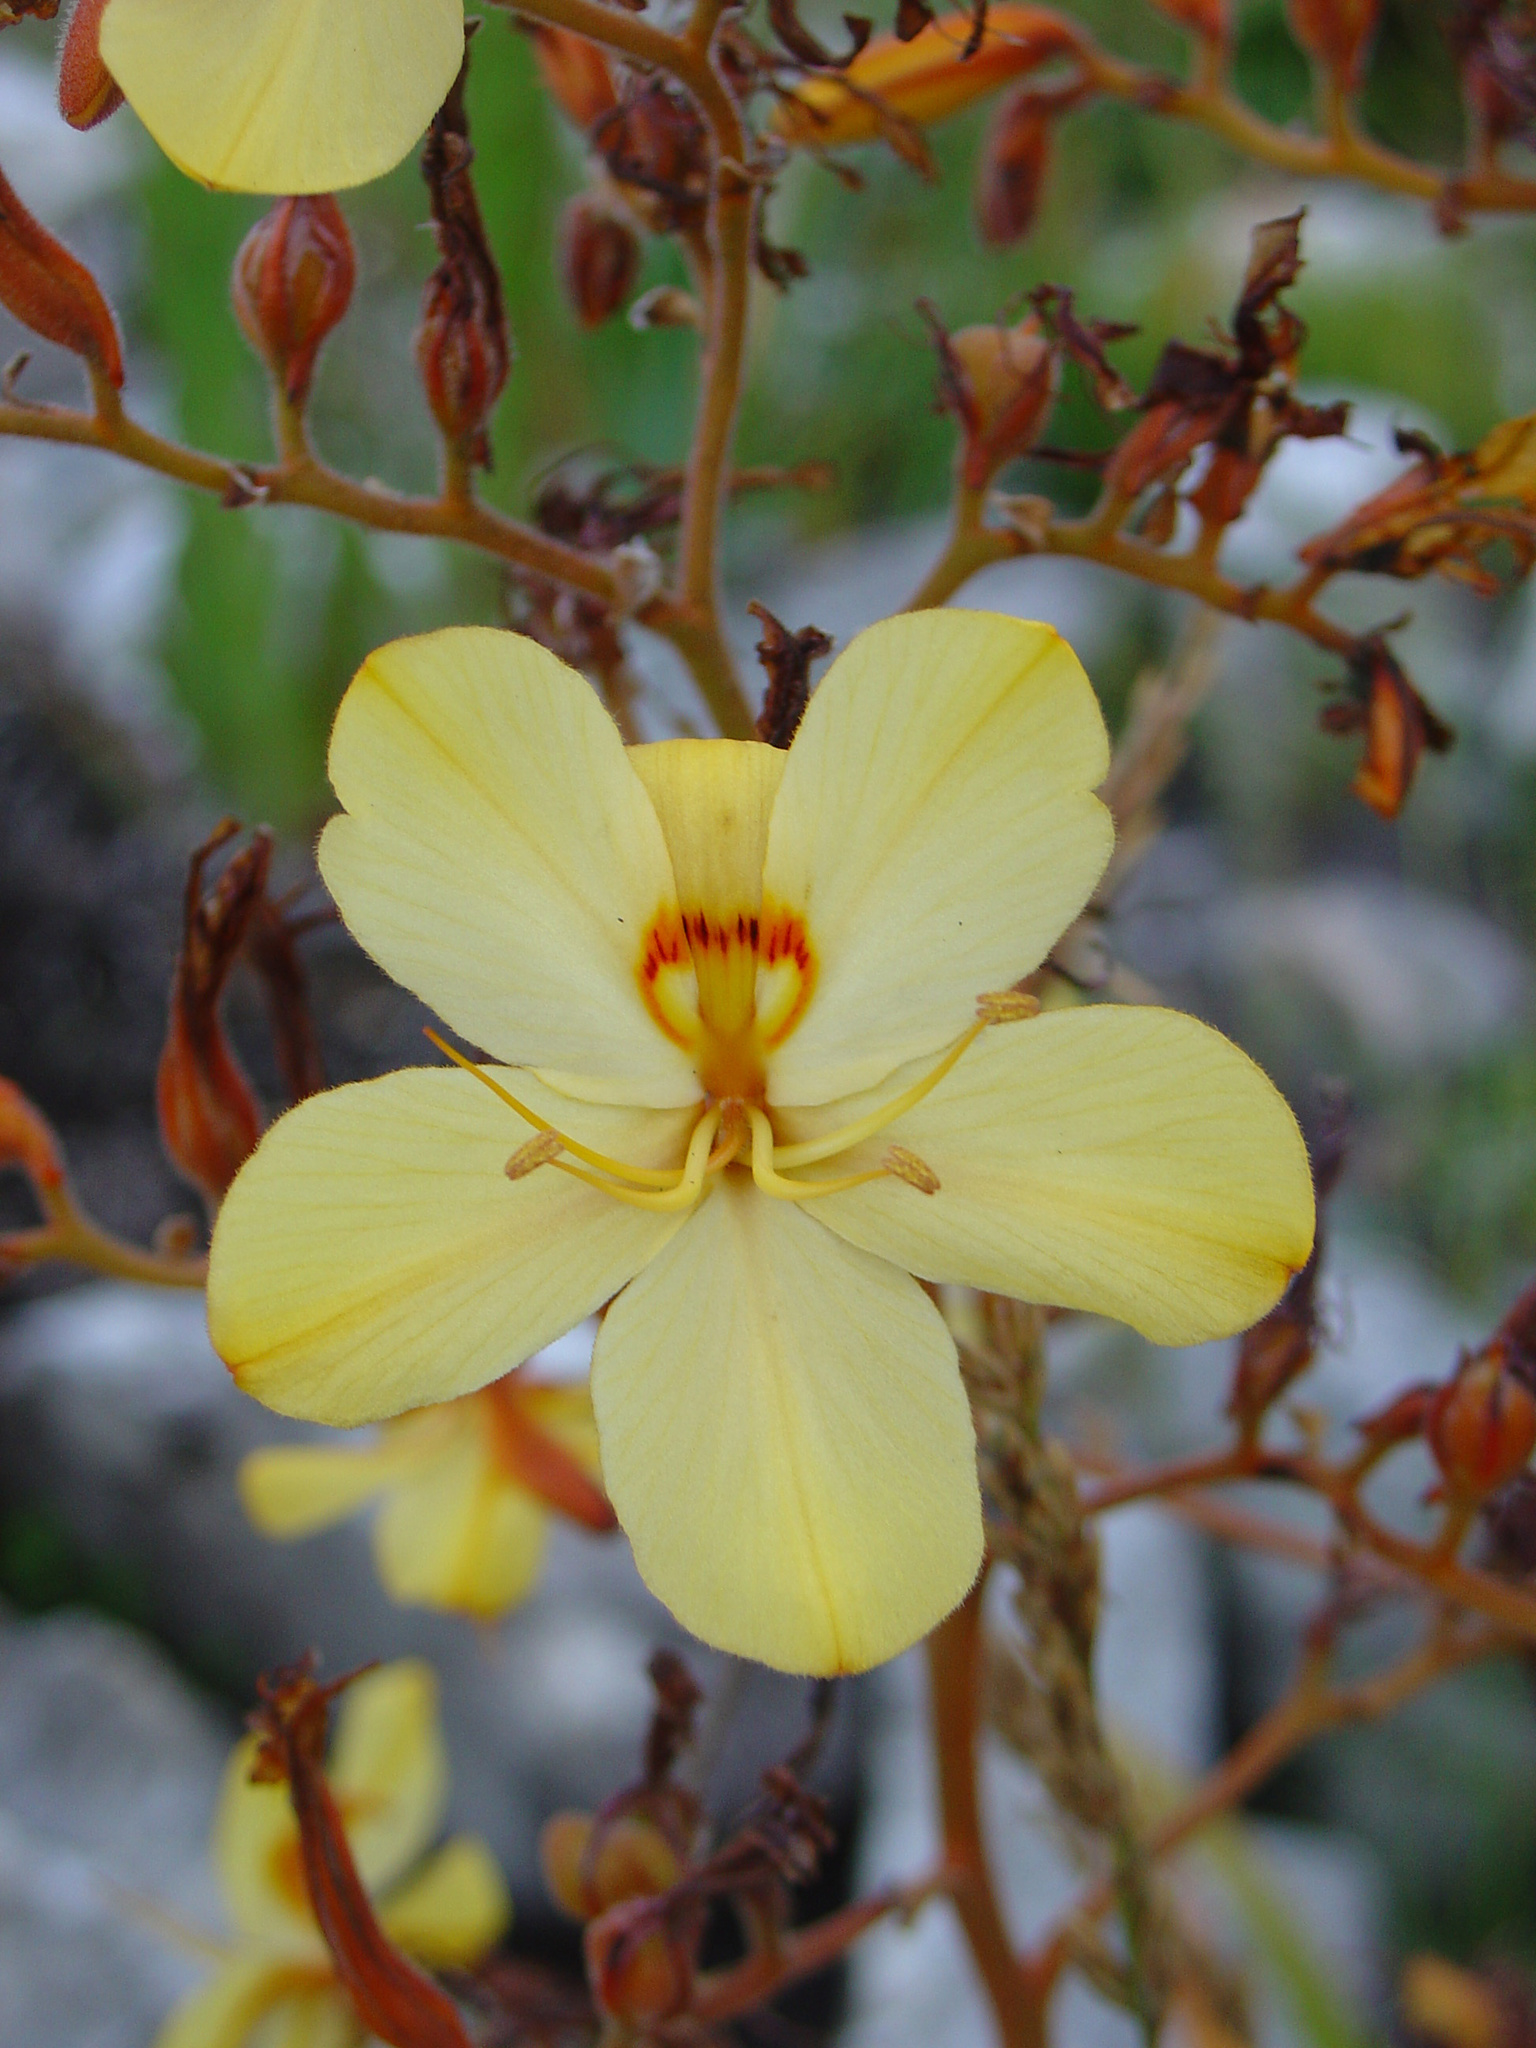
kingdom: Plantae
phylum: Tracheophyta
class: Liliopsida
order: Commelinales
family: Haemodoraceae
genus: Wachendorfia
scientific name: Wachendorfia paniculata
